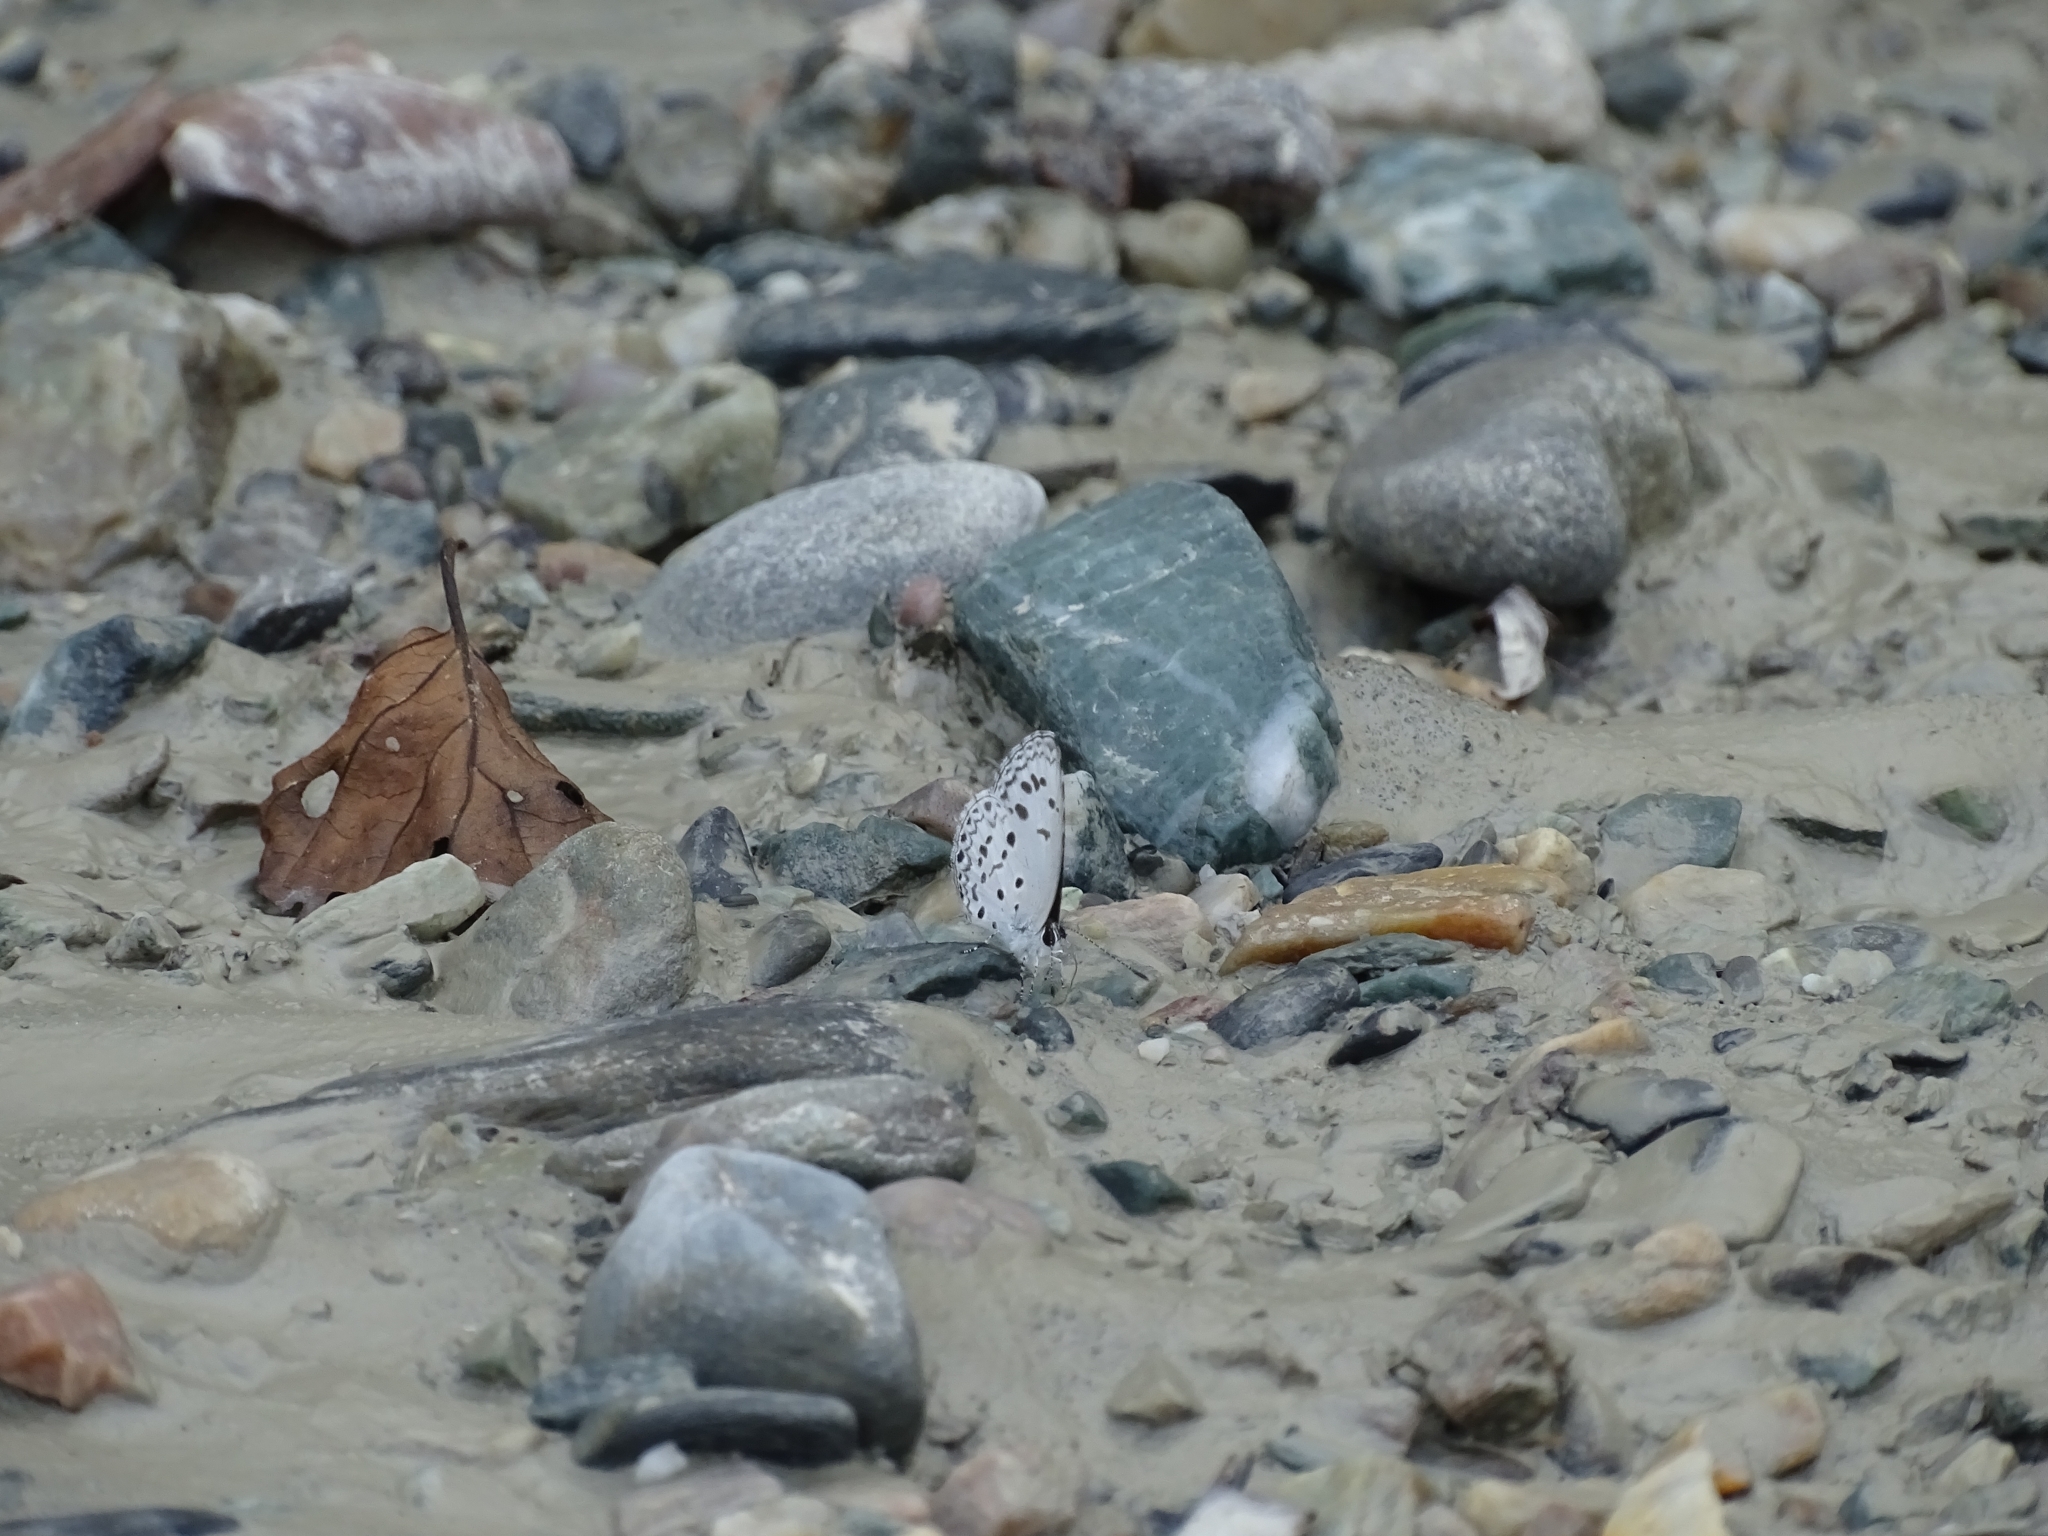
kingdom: Animalia
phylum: Arthropoda
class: Insecta
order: Lepidoptera
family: Lycaenidae
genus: Acytolepis
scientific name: Acytolepis puspa
